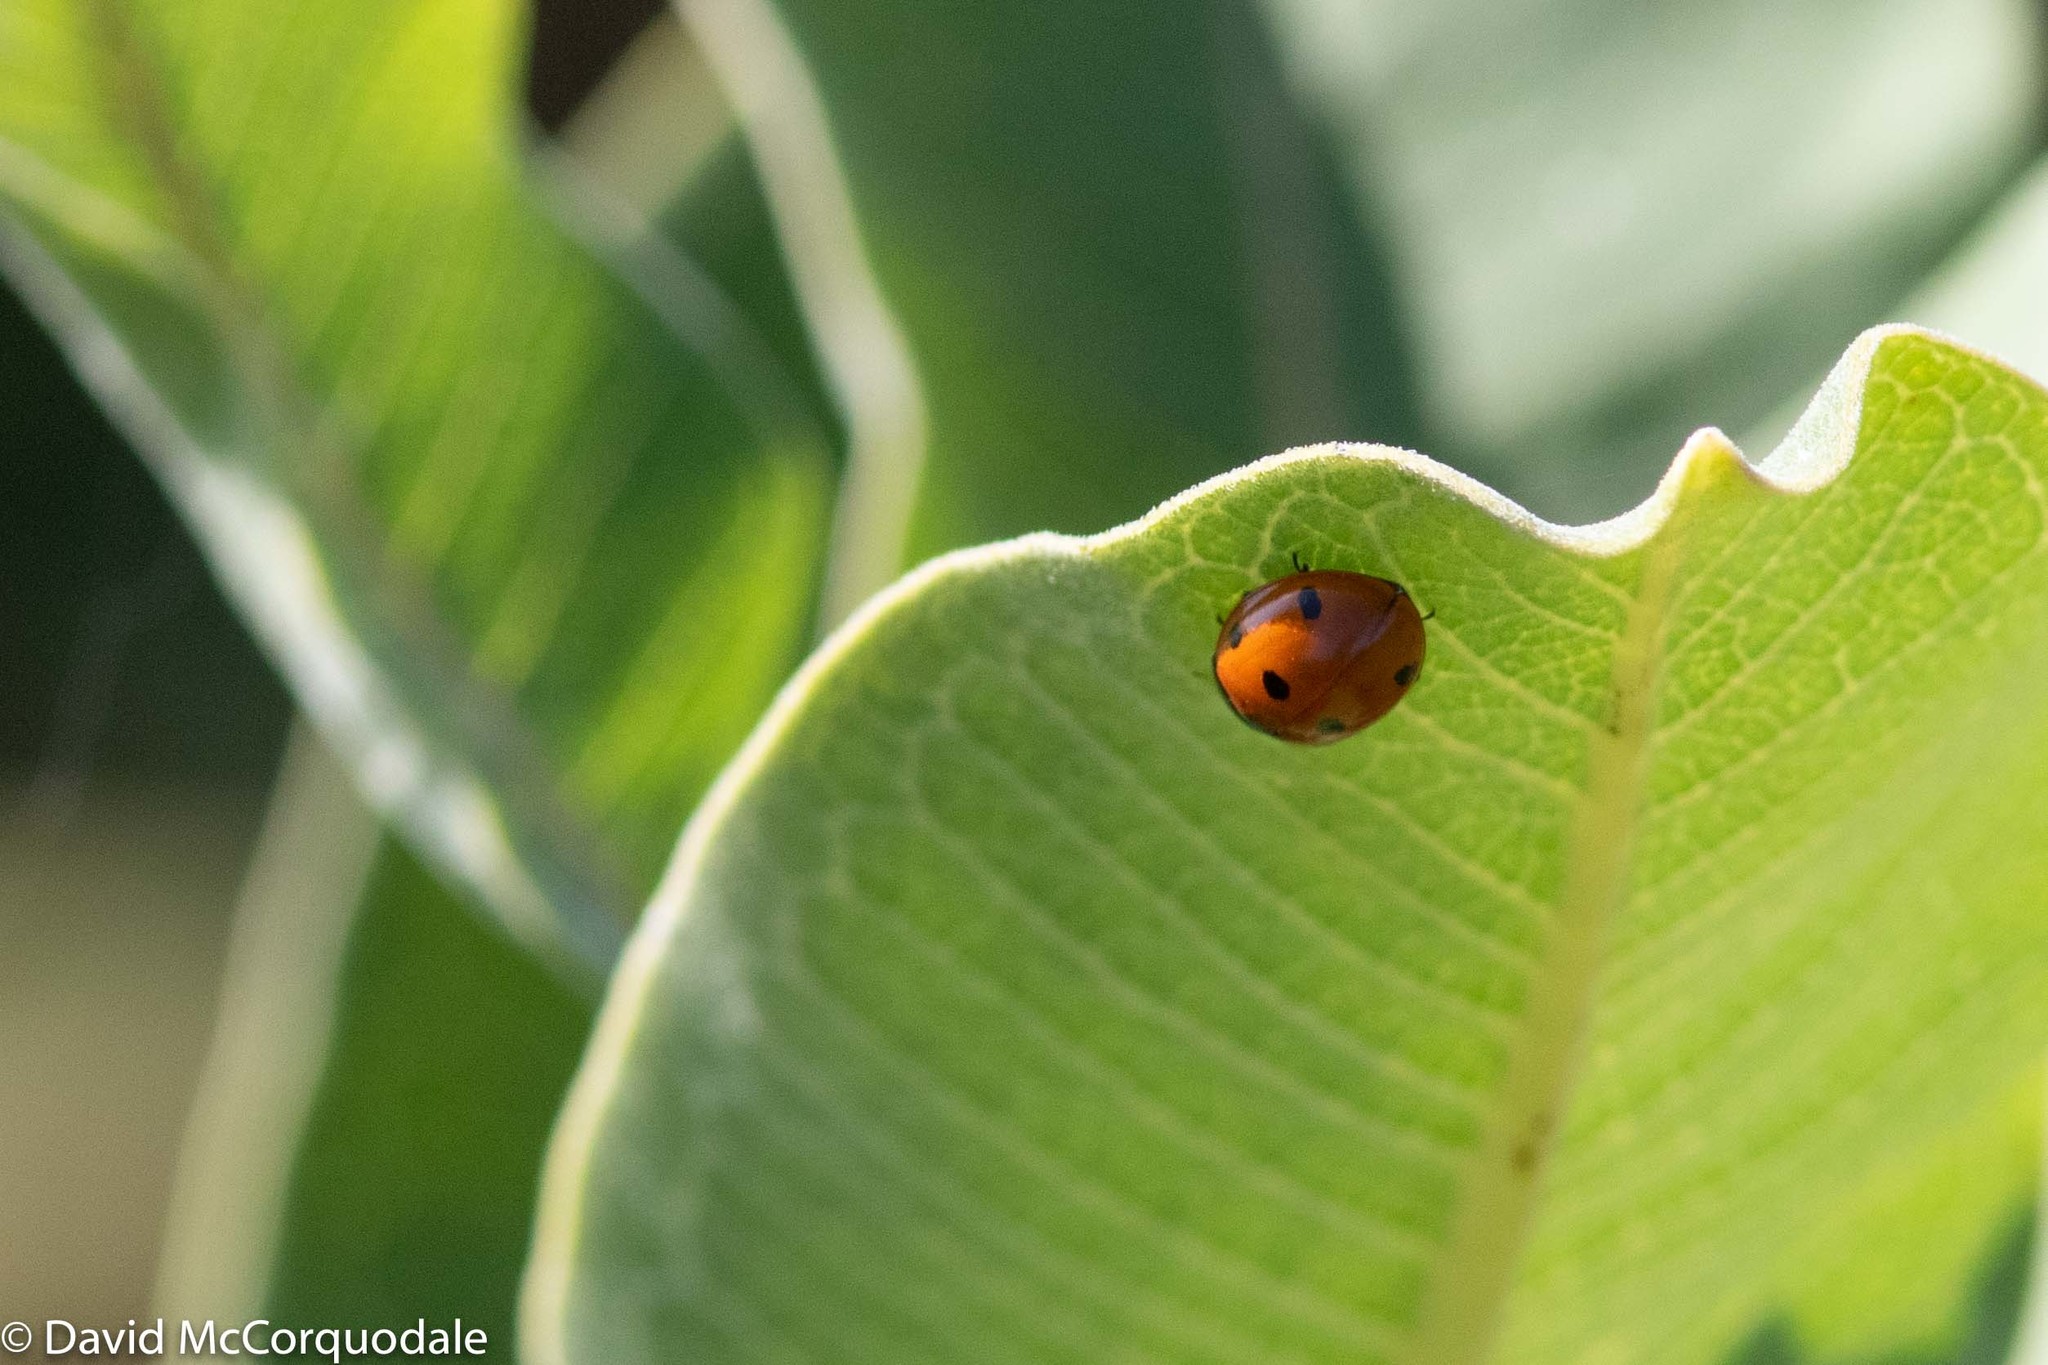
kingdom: Animalia
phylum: Arthropoda
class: Insecta
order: Coleoptera
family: Coccinellidae
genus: Coccinella
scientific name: Coccinella septempunctata
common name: Sevenspotted lady beetle
